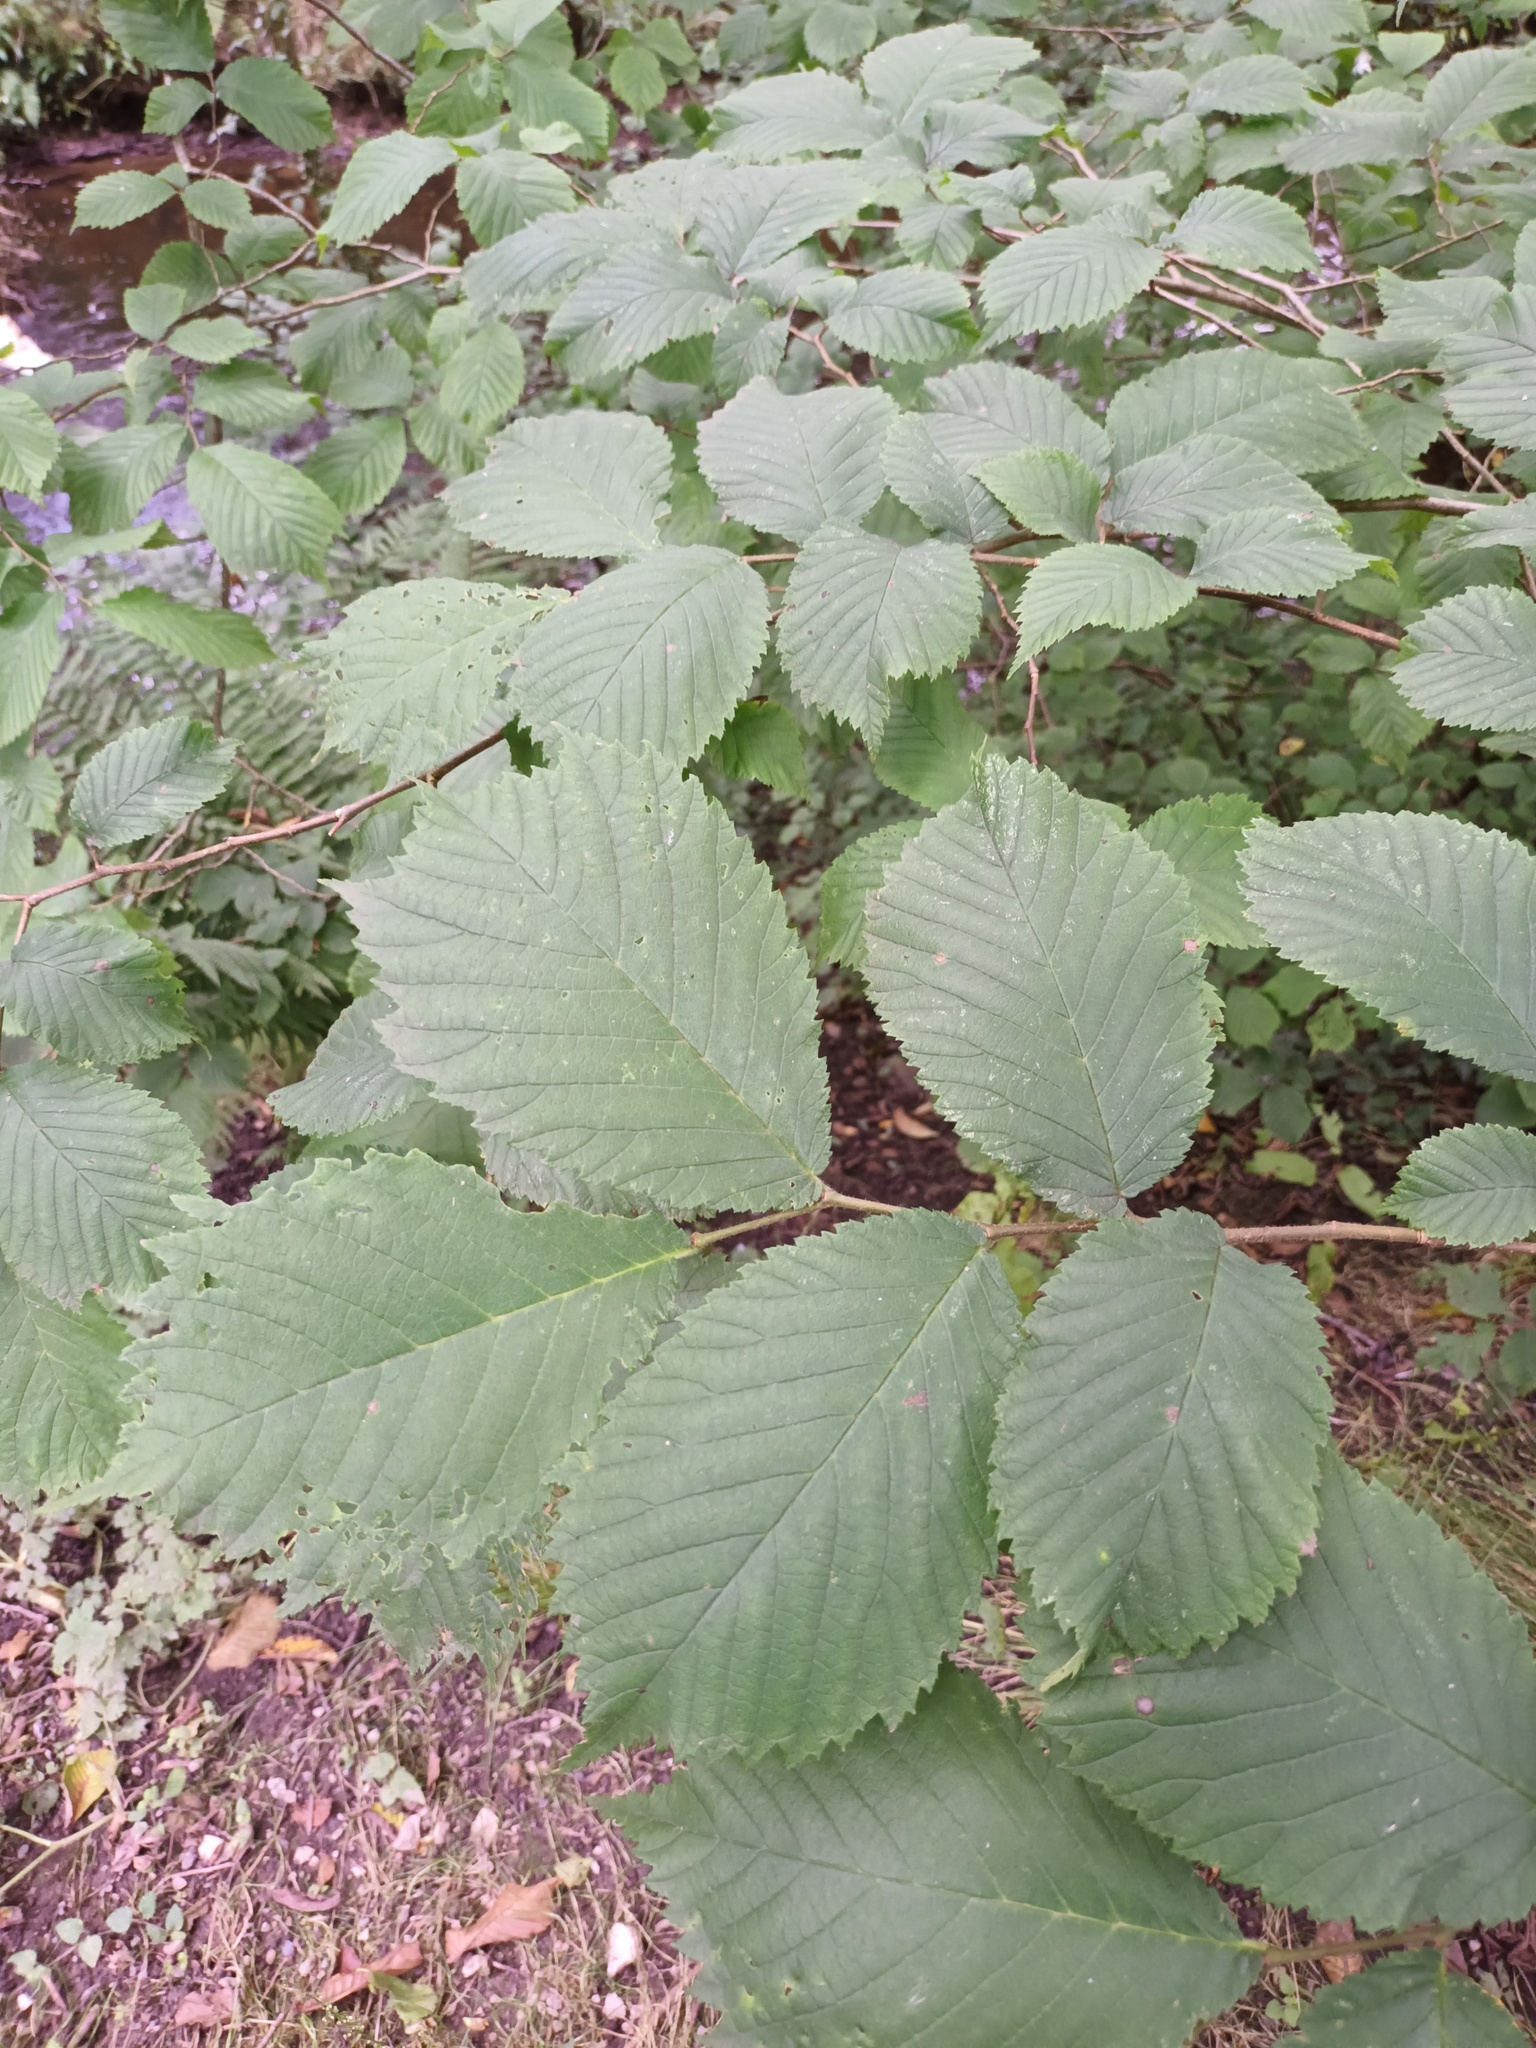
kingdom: Plantae
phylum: Tracheophyta
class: Magnoliopsida
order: Rosales
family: Ulmaceae
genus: Ulmus
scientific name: Ulmus glabra
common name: Wych elm
